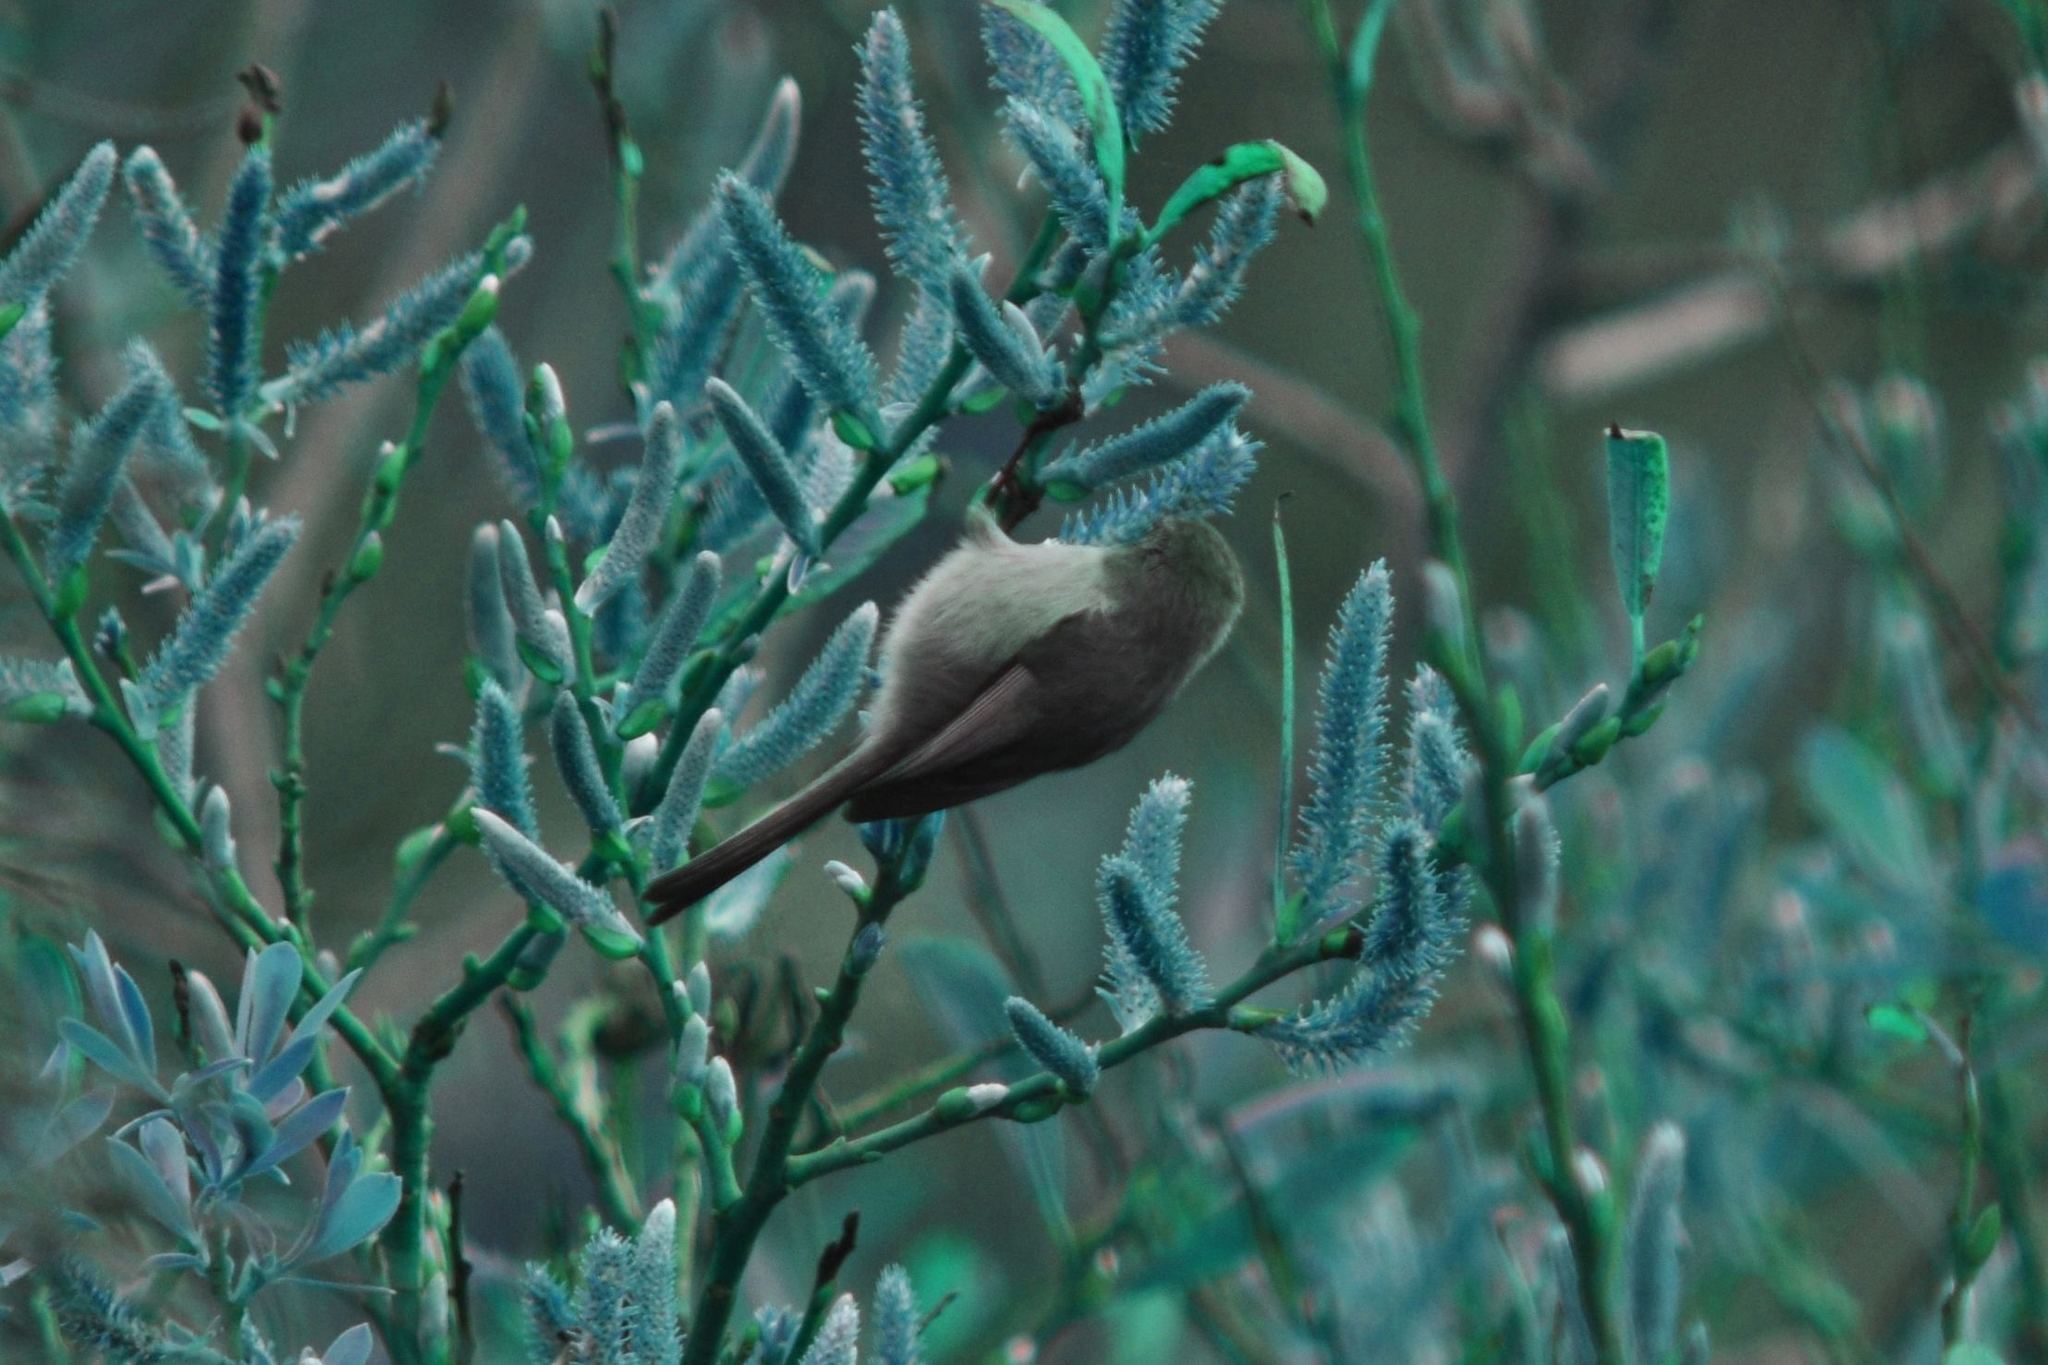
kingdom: Animalia
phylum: Chordata
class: Aves
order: Passeriformes
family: Aegithalidae
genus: Psaltriparus
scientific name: Psaltriparus minimus
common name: American bushtit
